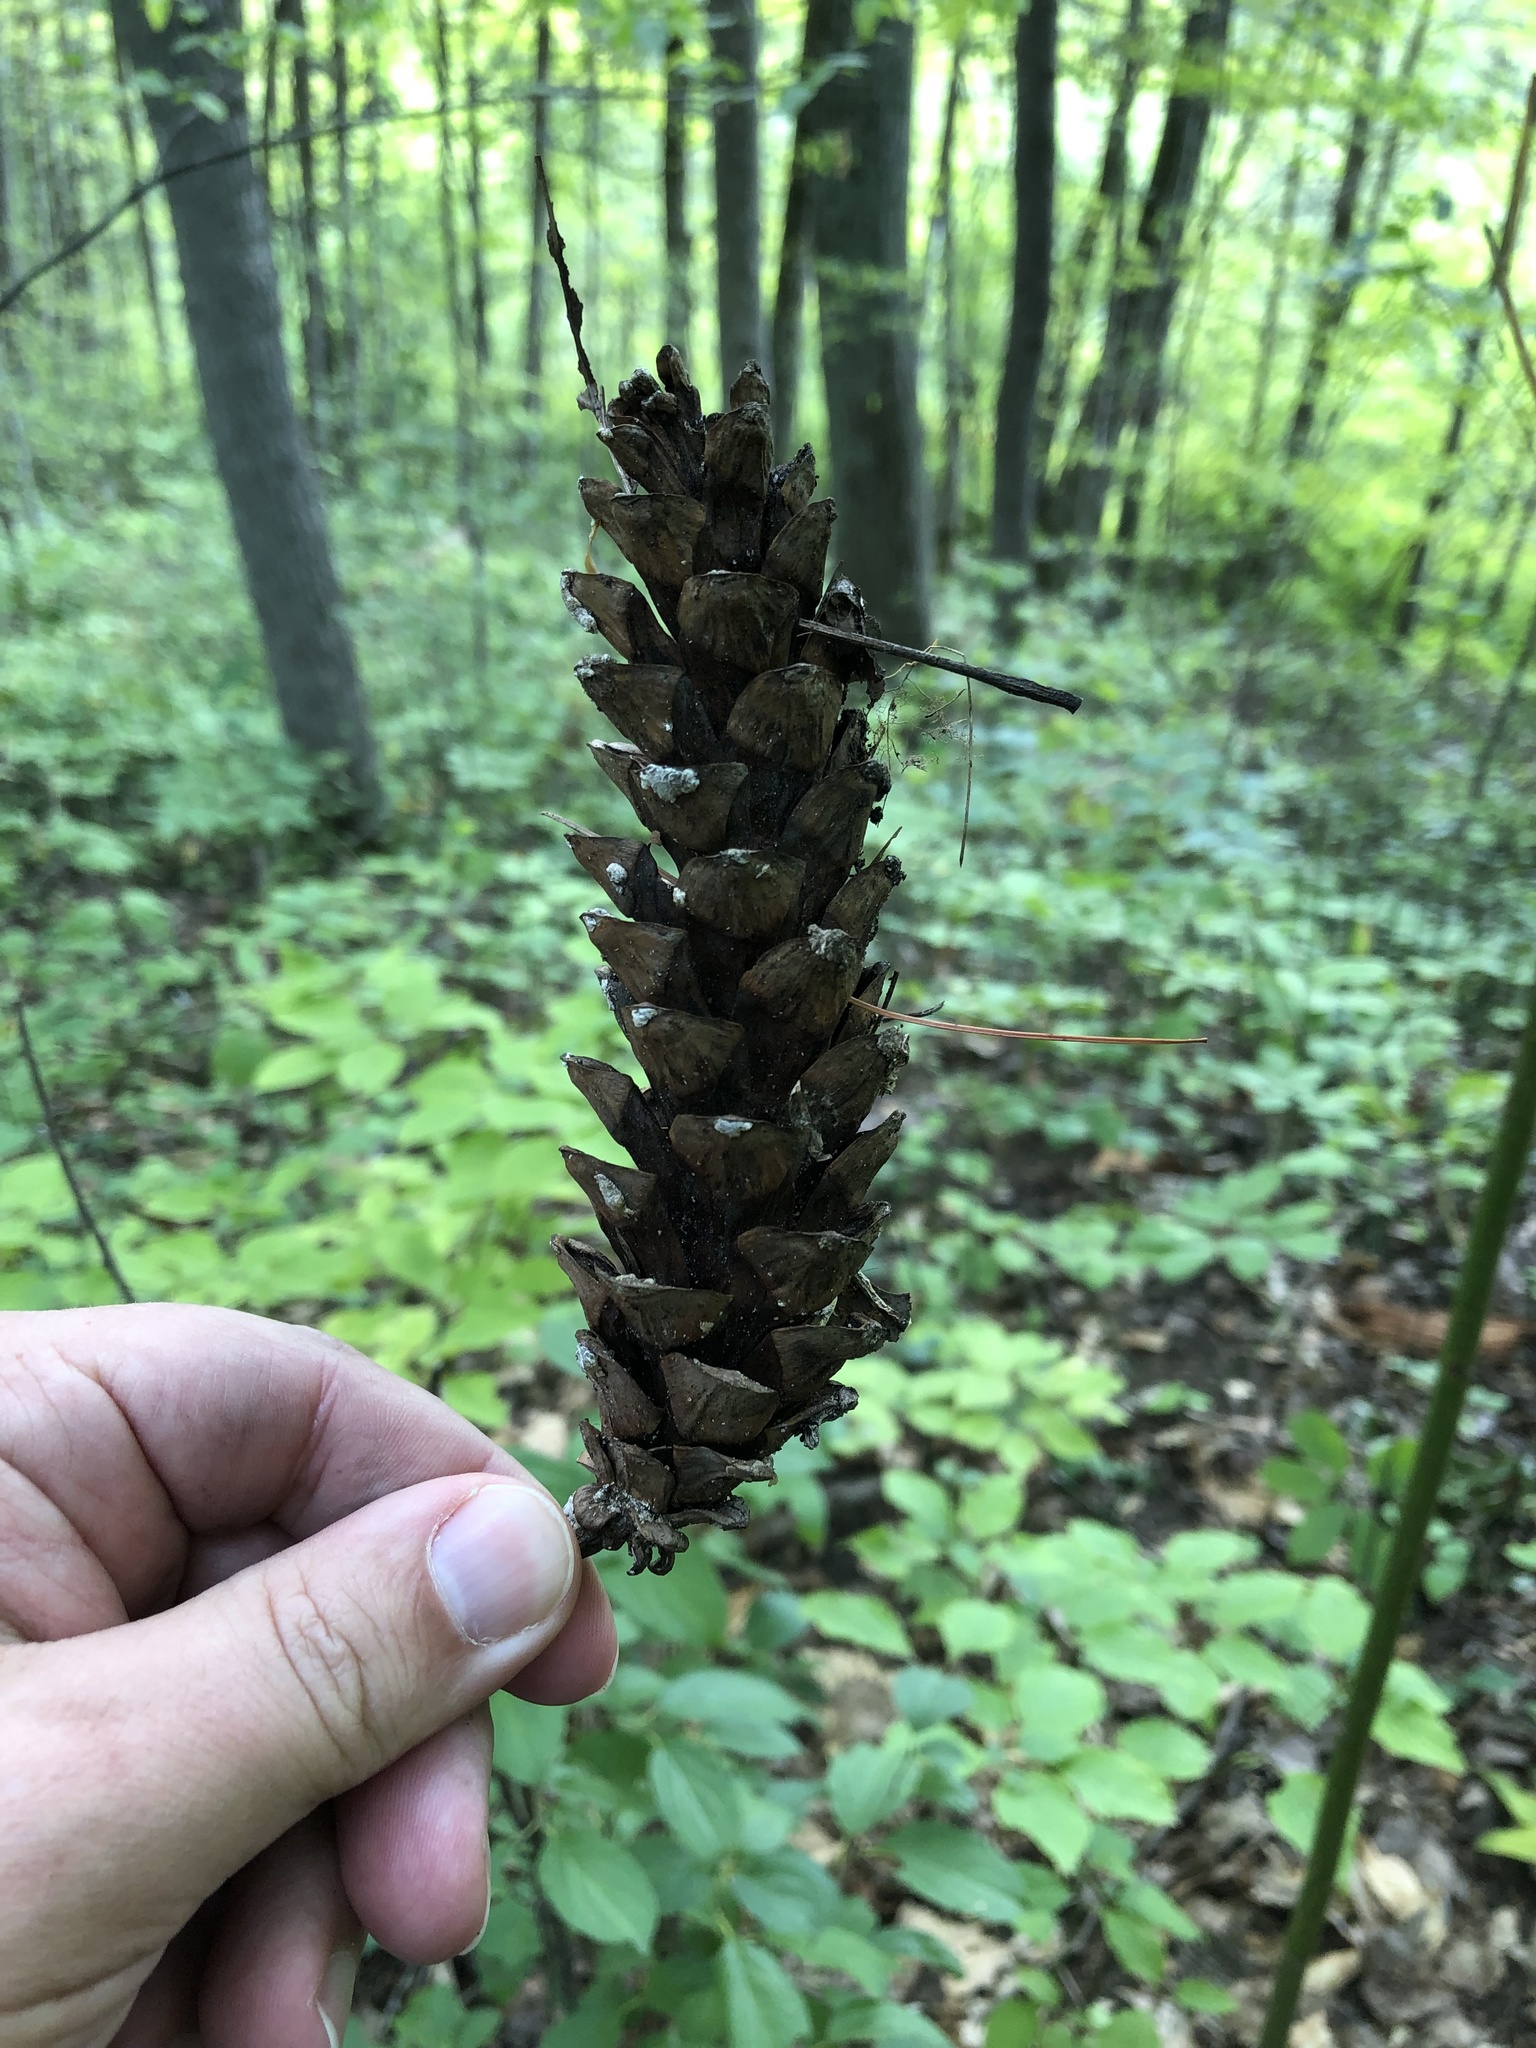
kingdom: Plantae
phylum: Tracheophyta
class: Pinopsida
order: Pinales
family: Pinaceae
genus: Pinus
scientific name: Pinus strobus
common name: Weymouth pine
